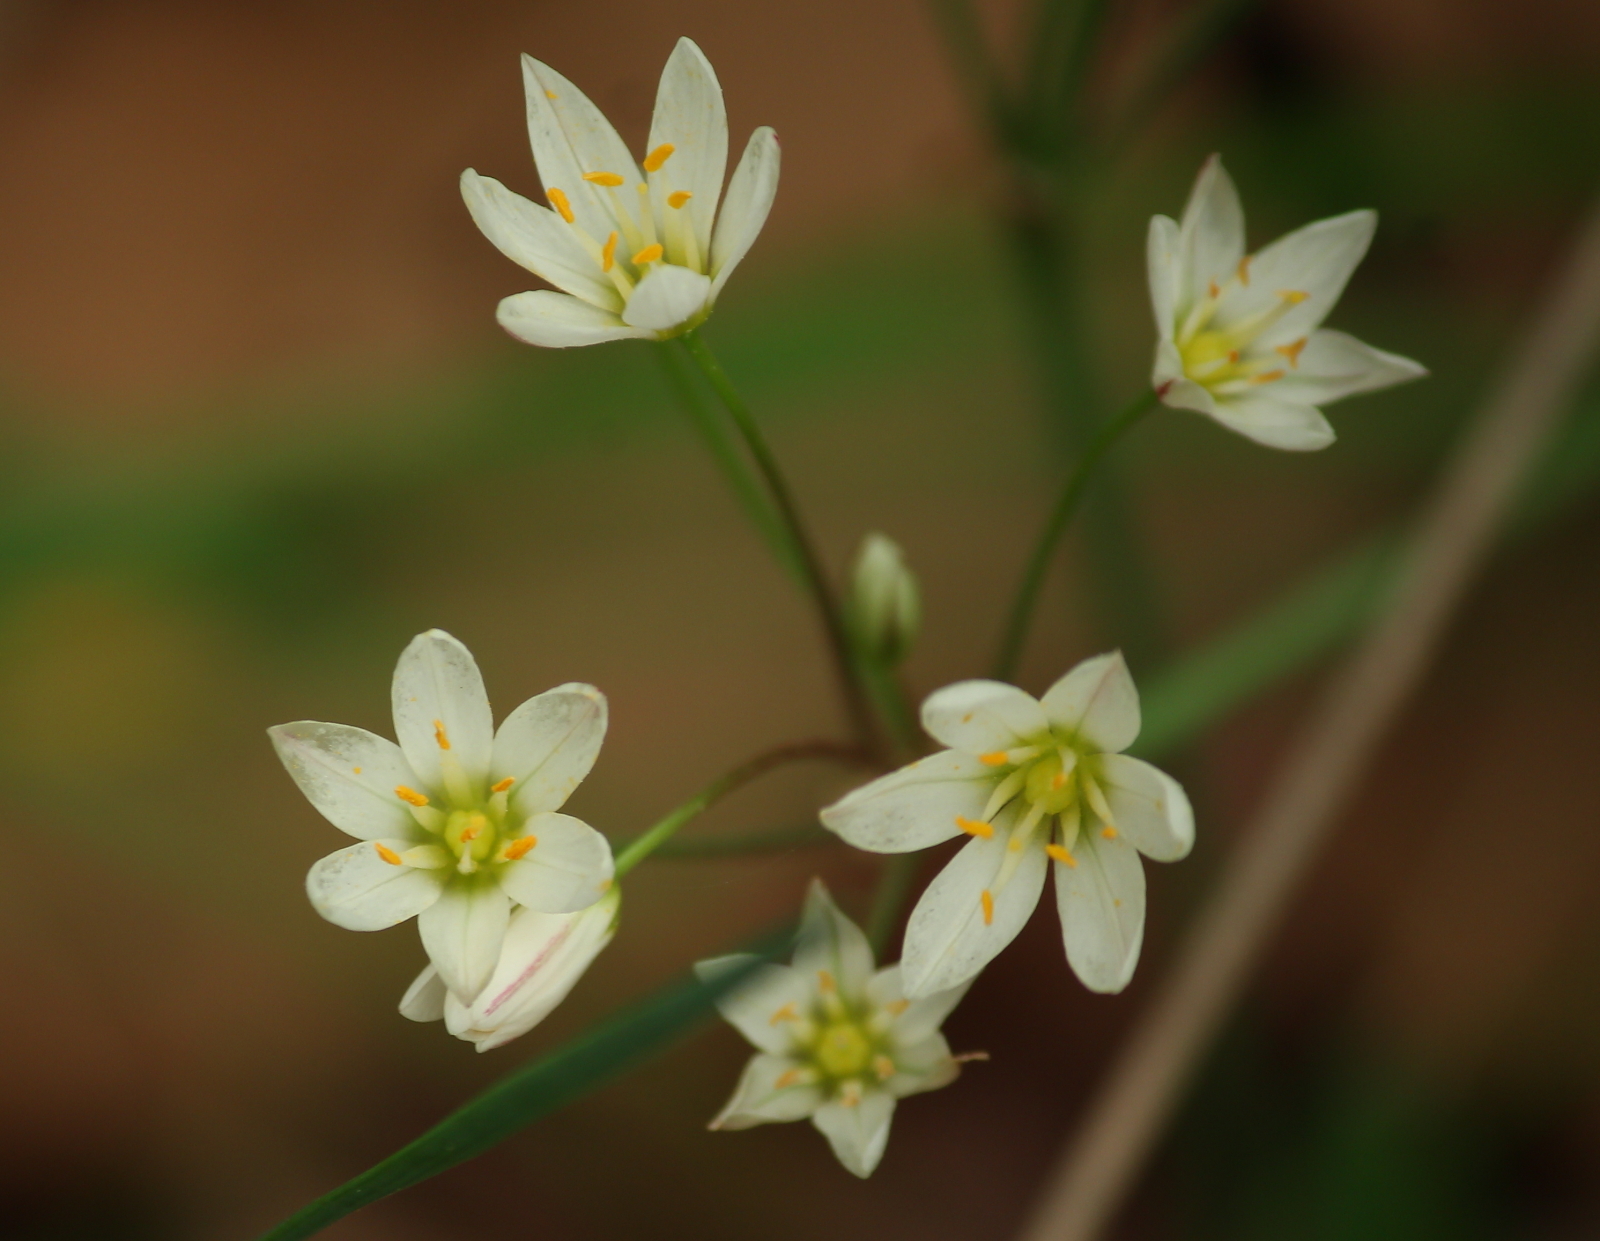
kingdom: Plantae
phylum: Tracheophyta
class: Liliopsida
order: Asparagales
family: Amaryllidaceae
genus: Nothoscordum
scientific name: Nothoscordum bivalve
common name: Crow-poison
